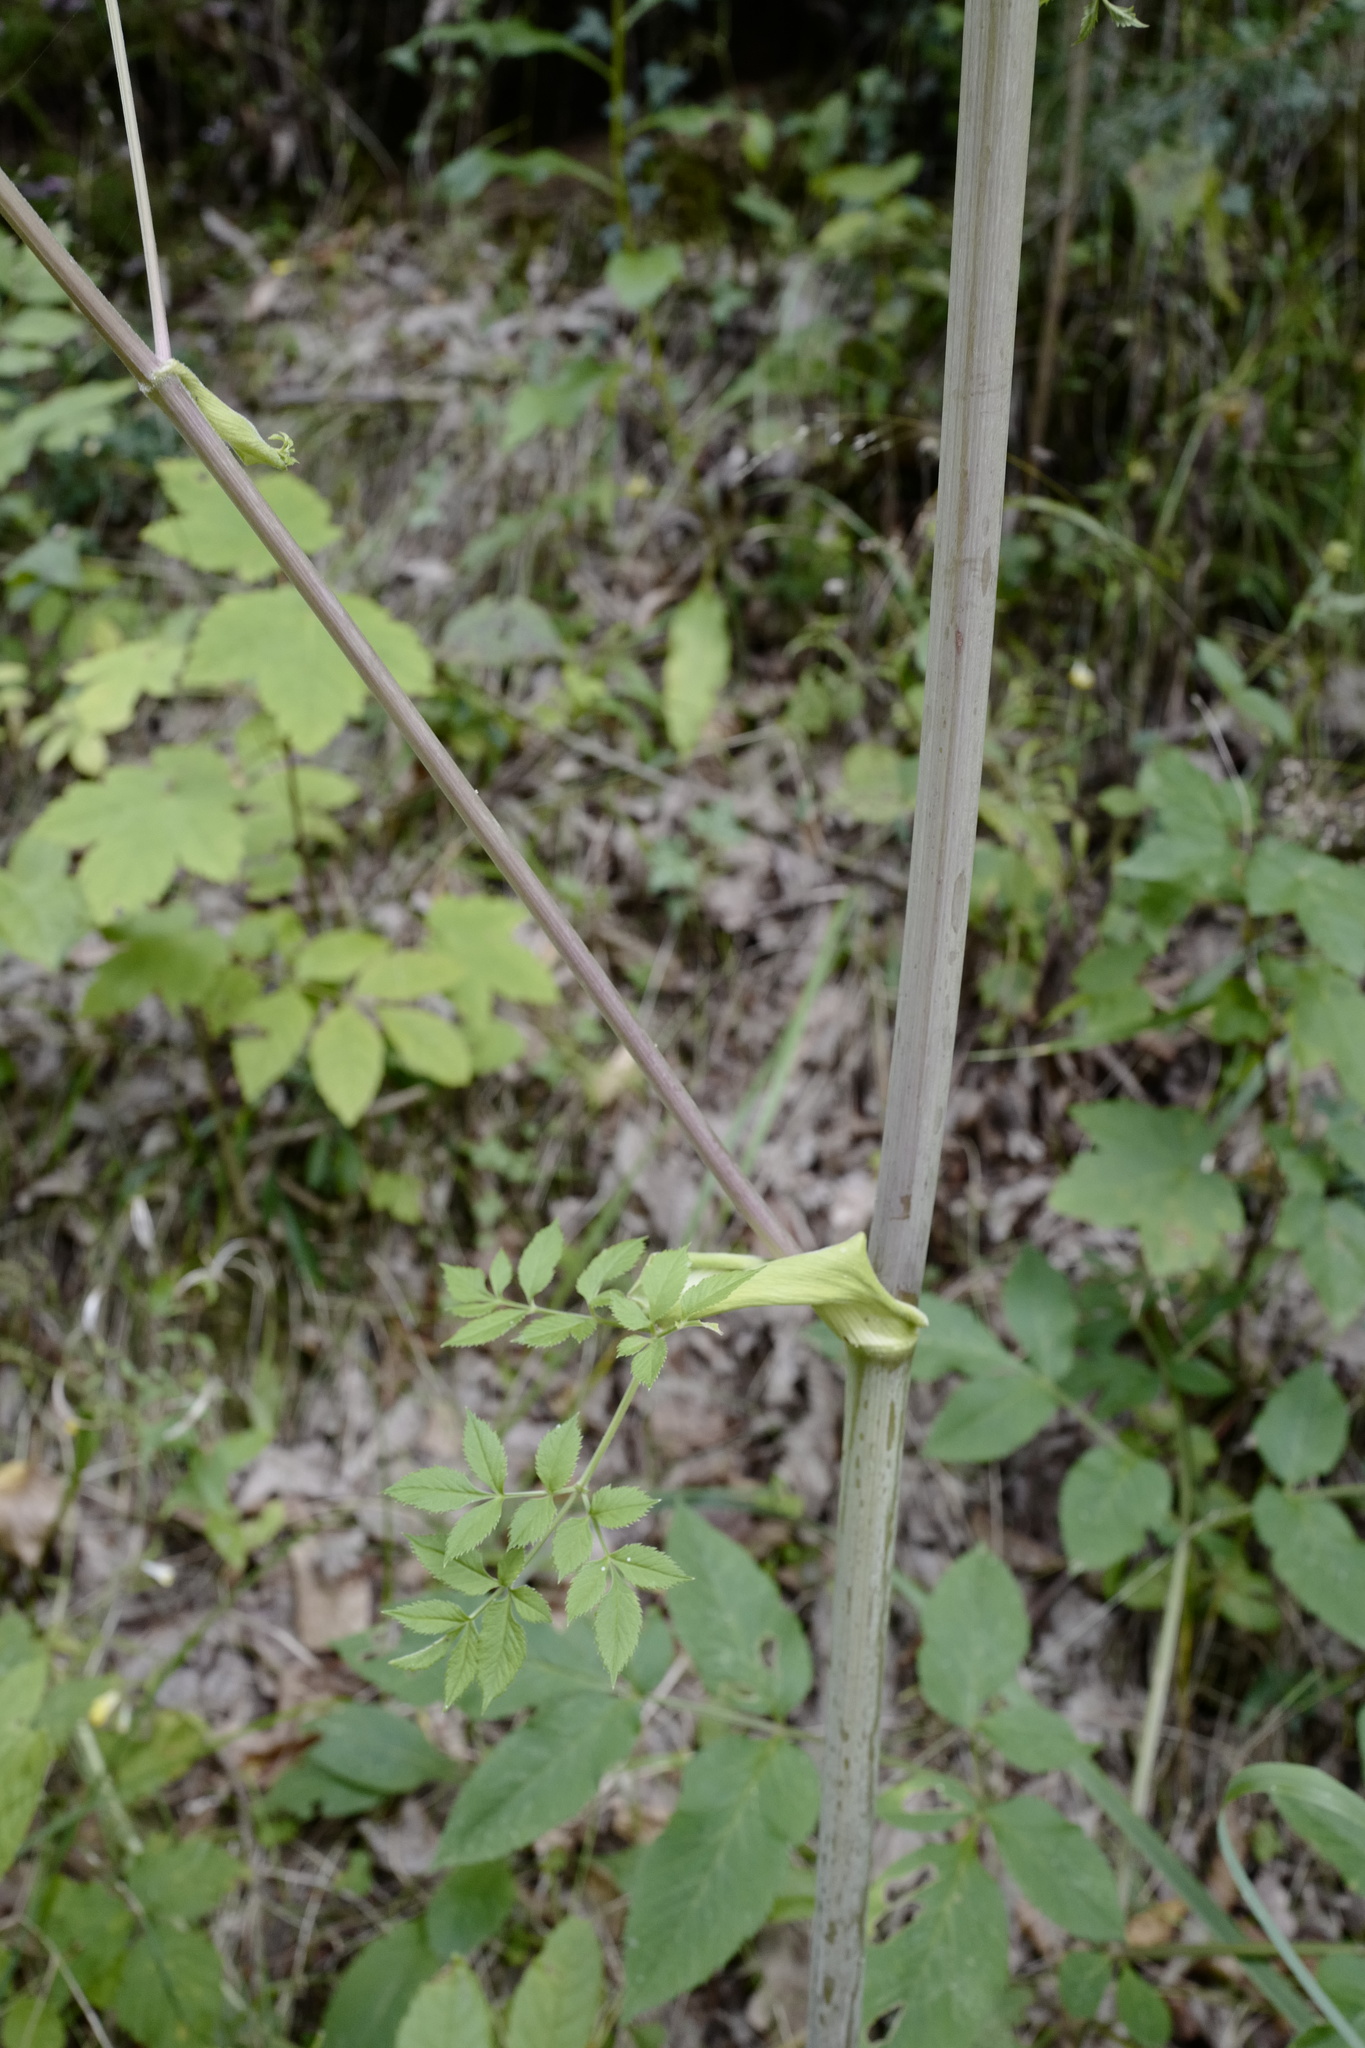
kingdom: Plantae
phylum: Tracheophyta
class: Magnoliopsida
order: Apiales
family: Apiaceae
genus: Angelica
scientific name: Angelica sylvestris
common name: Wild angelica
